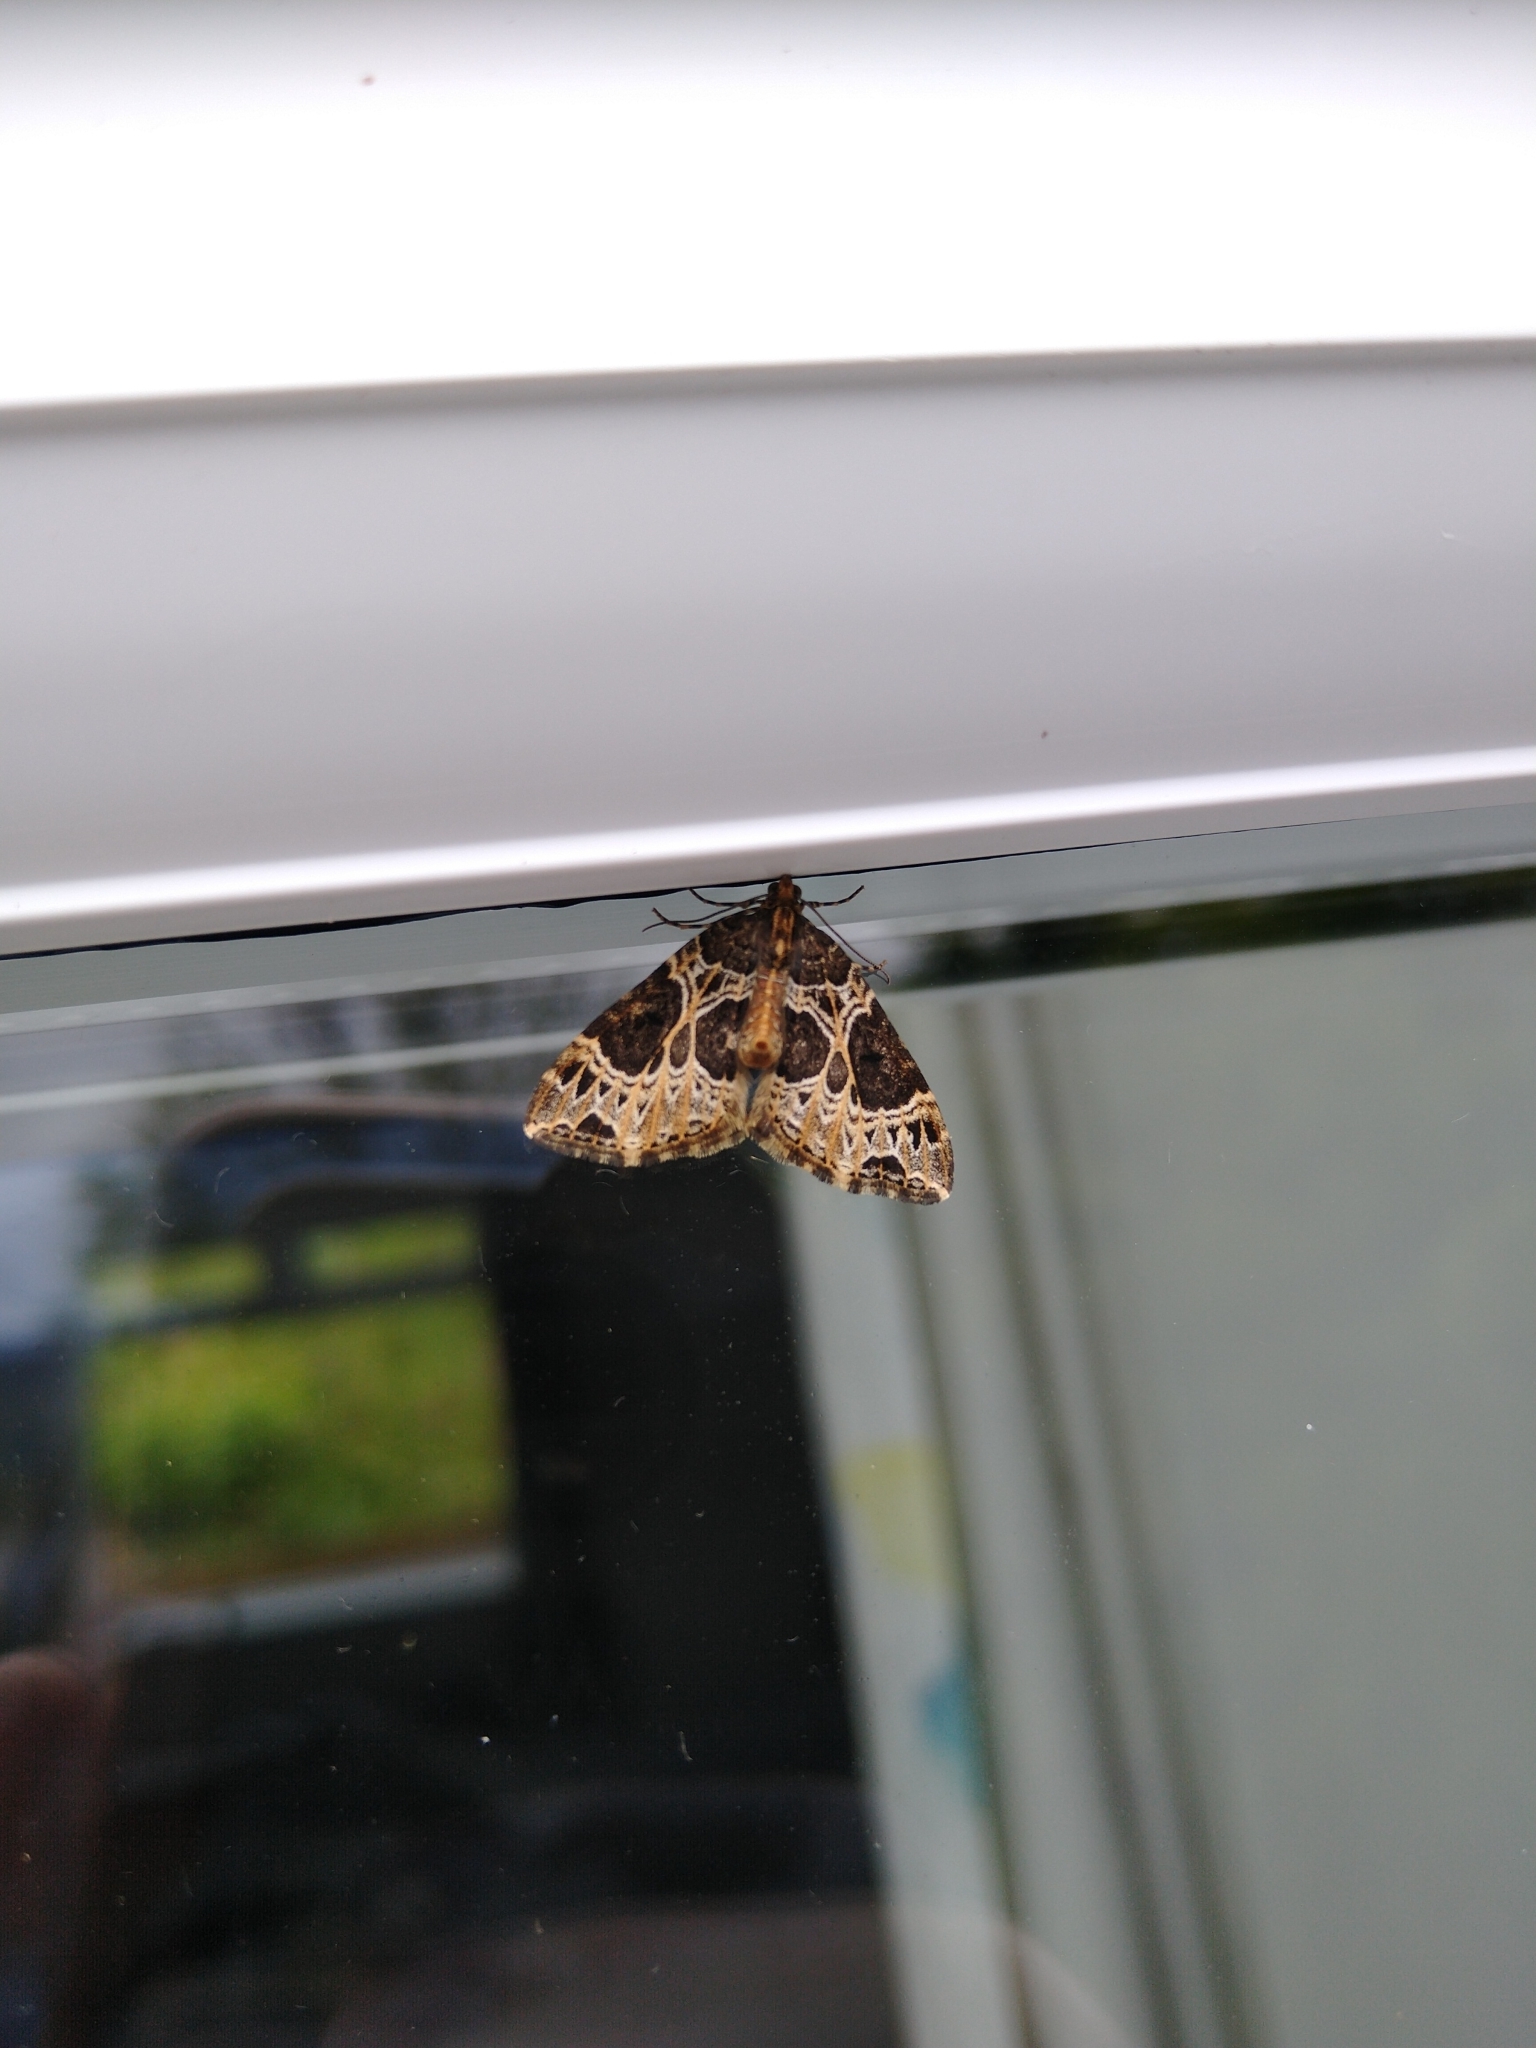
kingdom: Animalia
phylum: Arthropoda
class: Insecta
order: Lepidoptera
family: Geometridae
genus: Ecliptopera
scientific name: Ecliptopera silaceata
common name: Small phoenix
